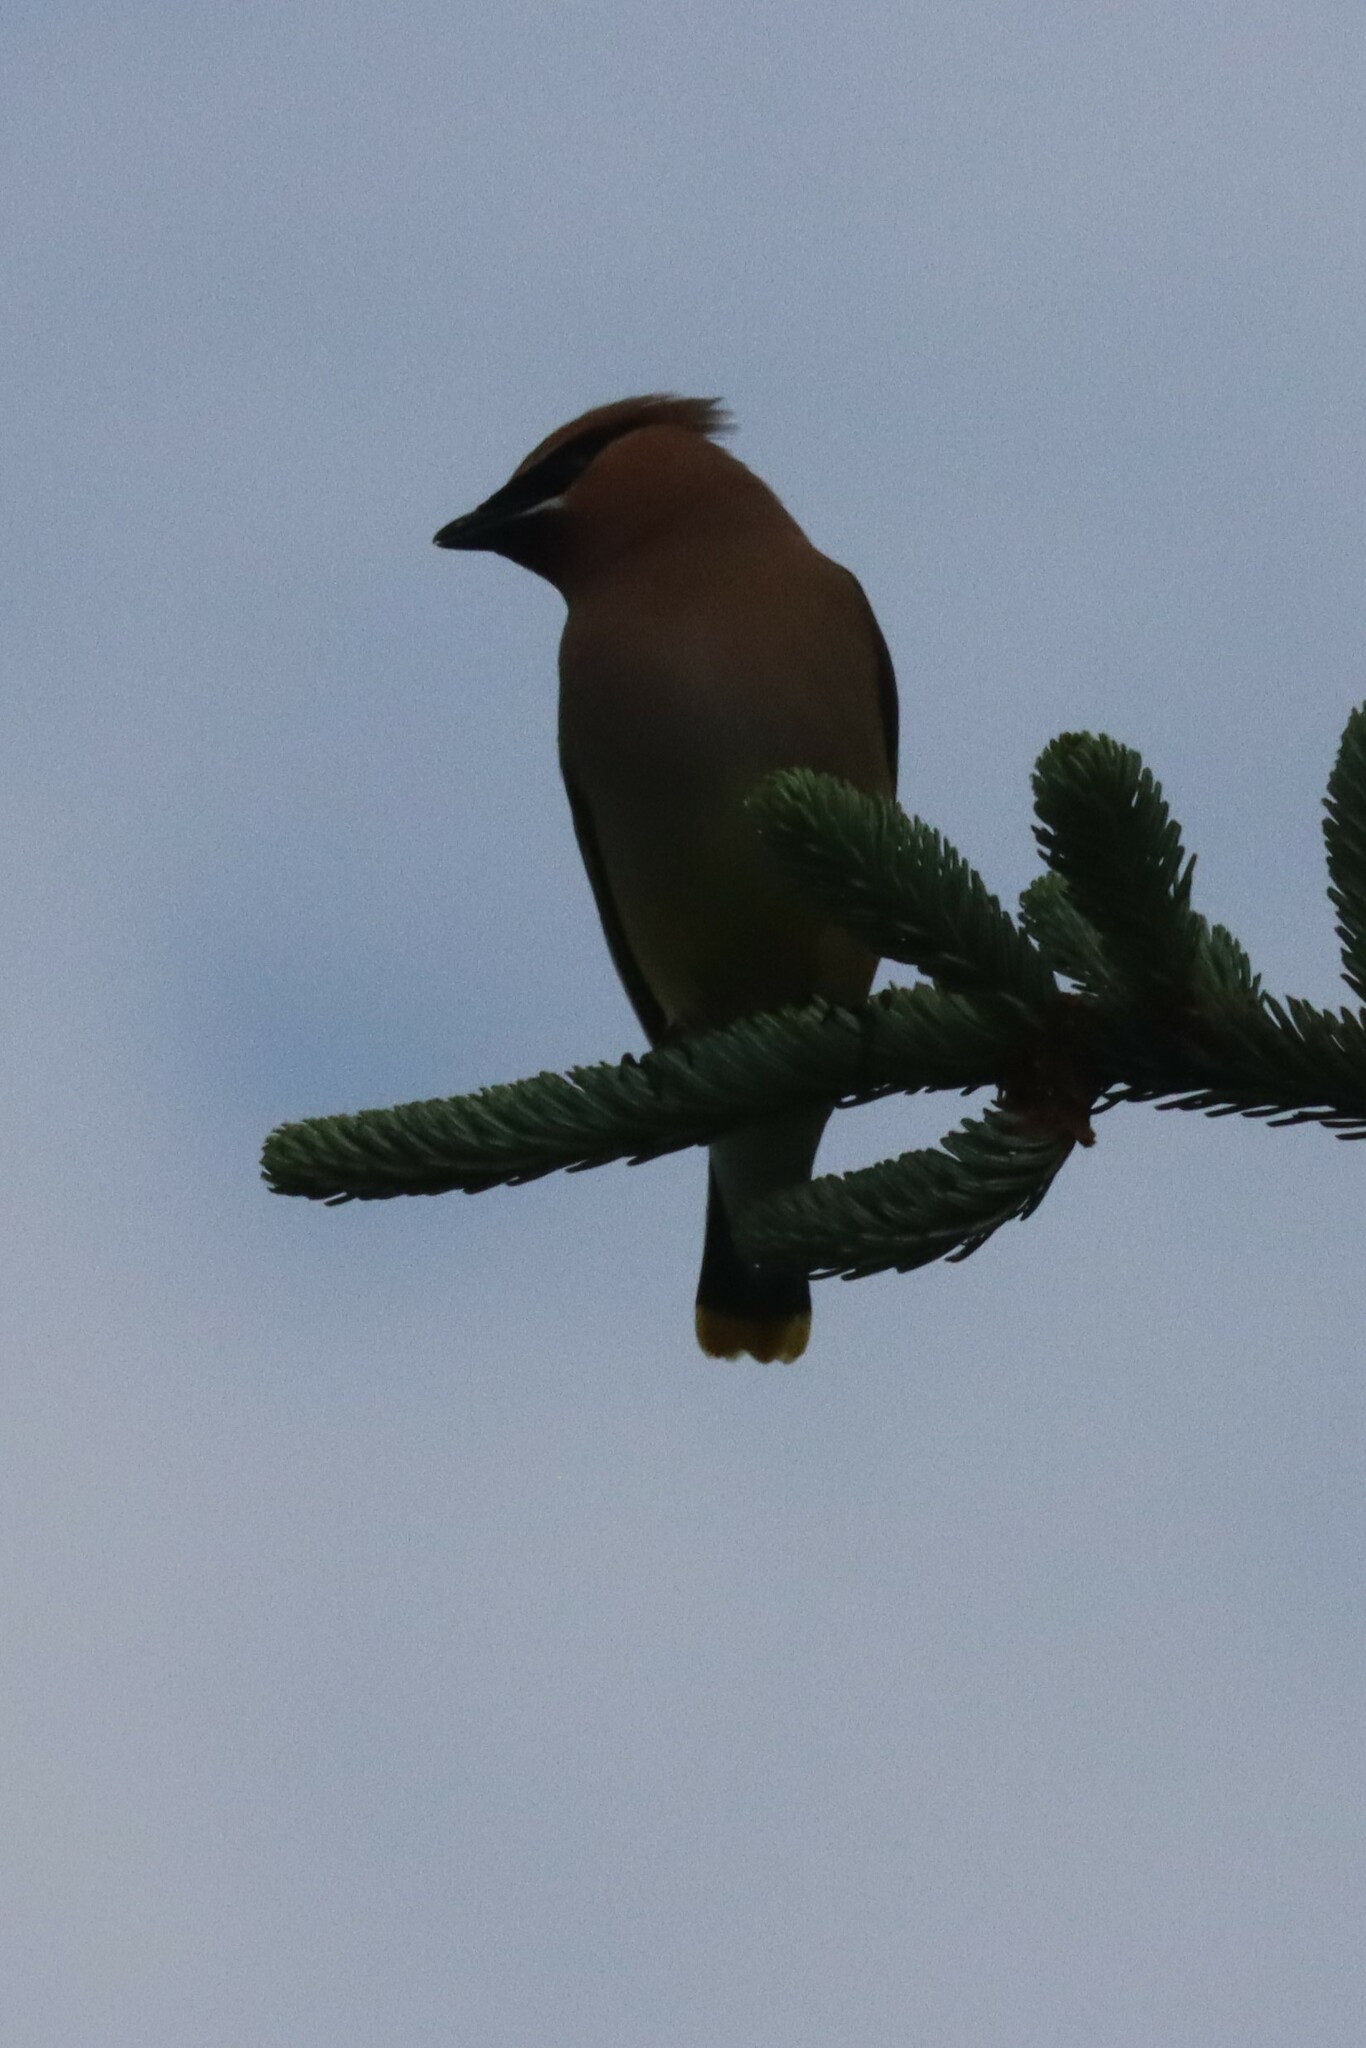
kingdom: Animalia
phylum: Chordata
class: Aves
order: Passeriformes
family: Bombycillidae
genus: Bombycilla
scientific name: Bombycilla cedrorum
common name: Cedar waxwing
